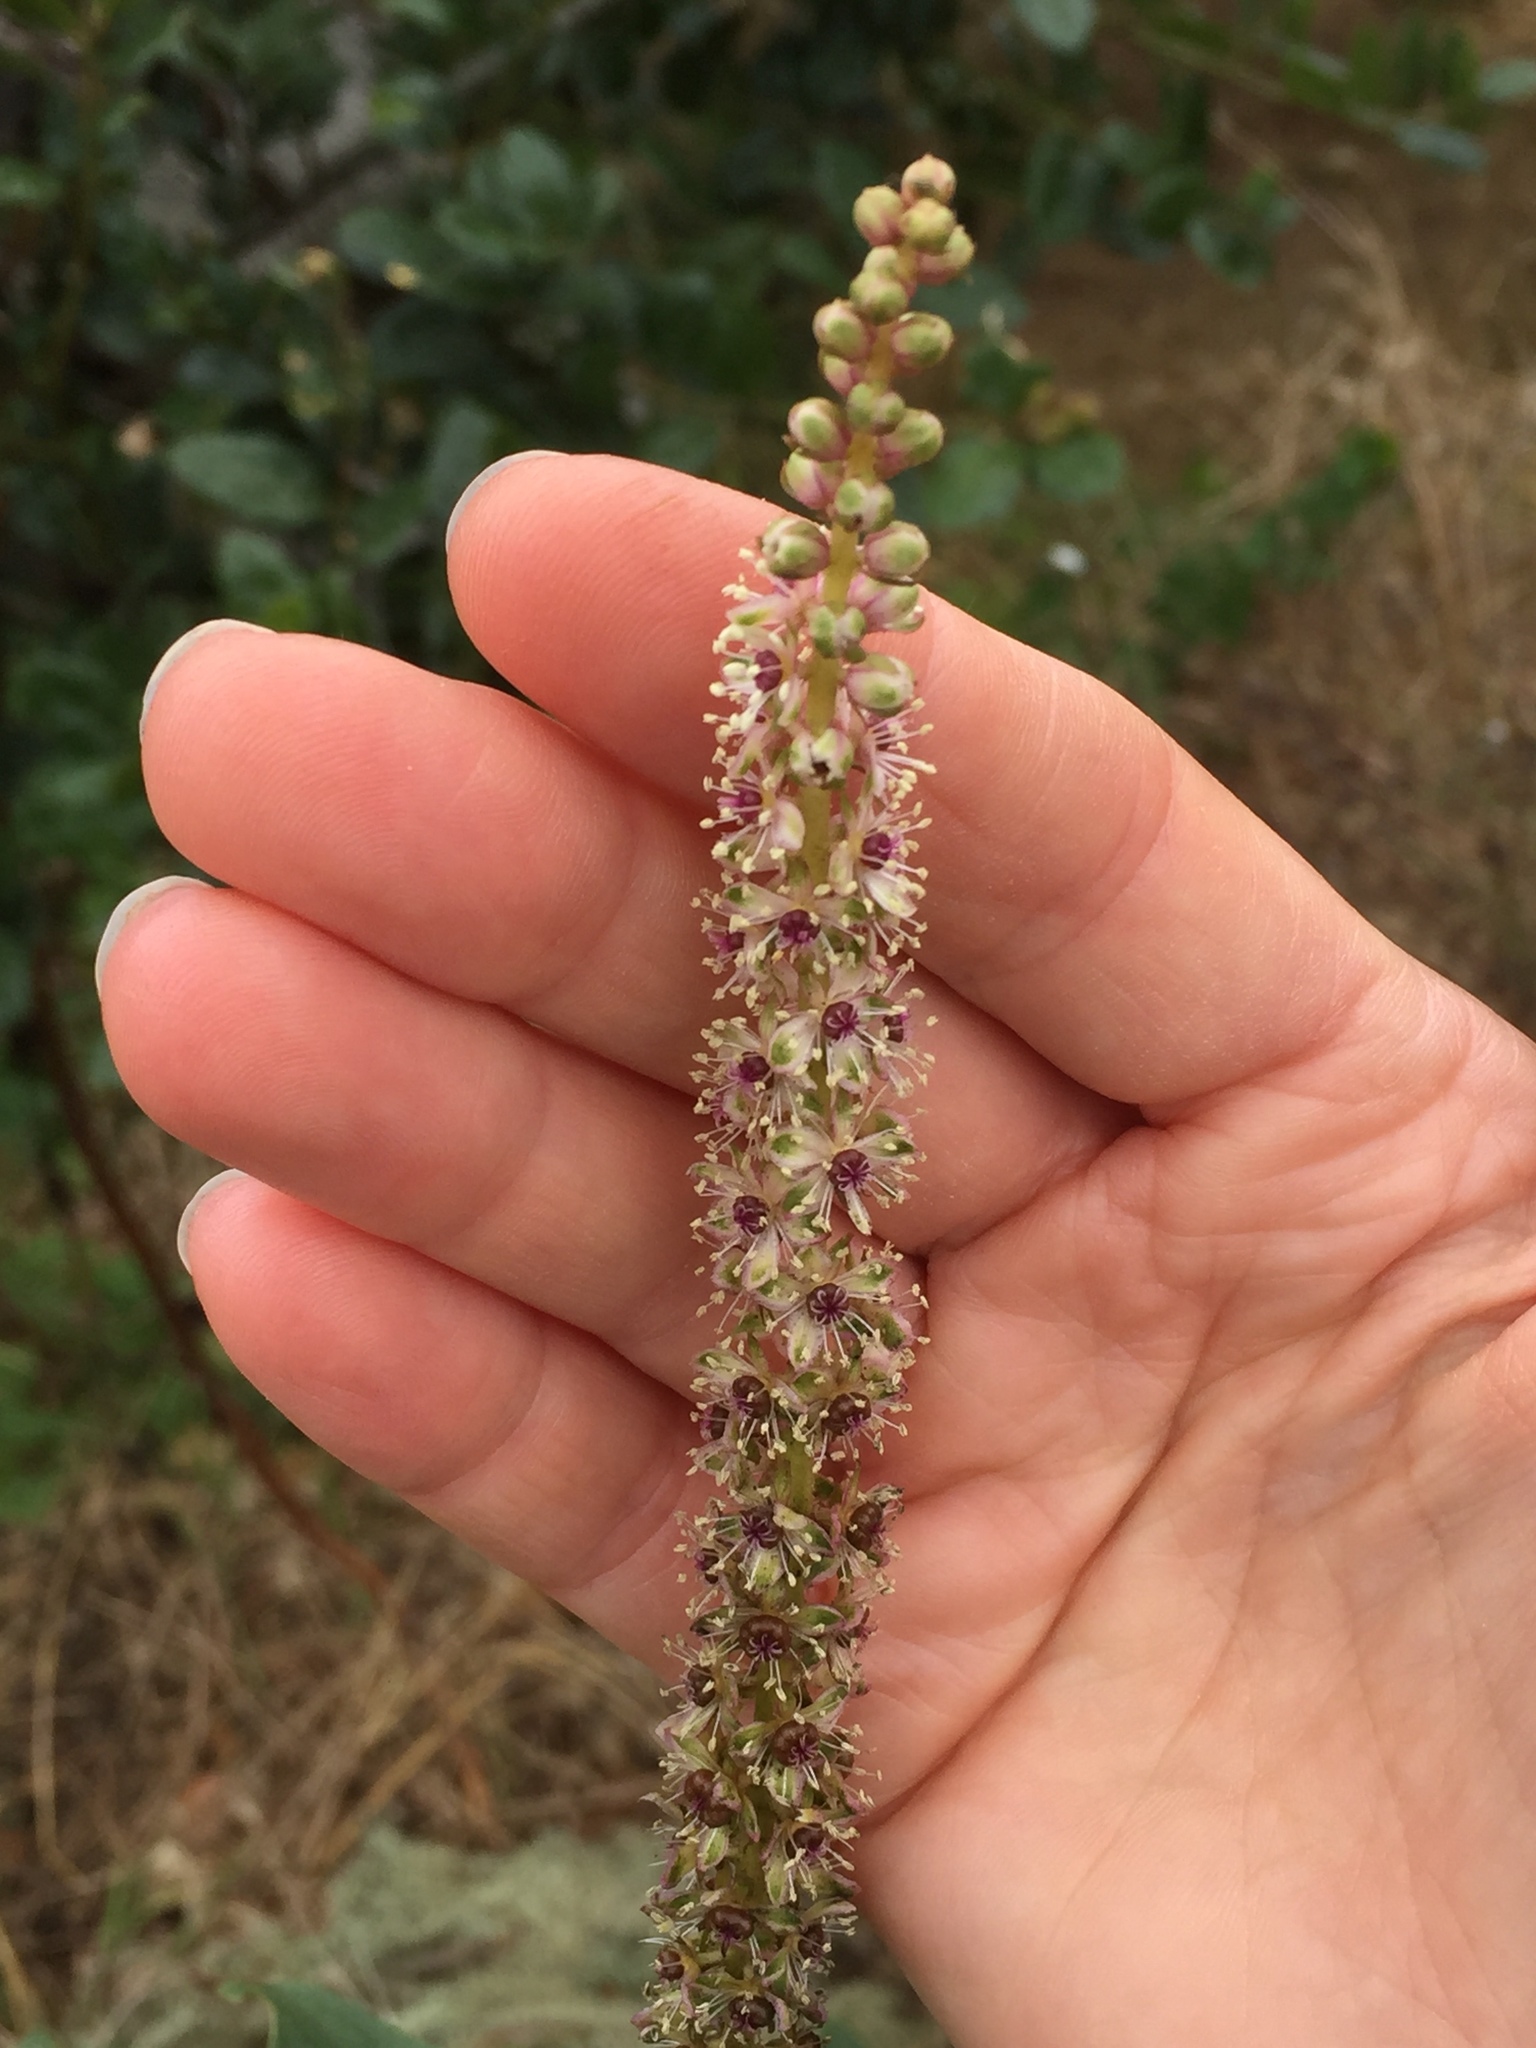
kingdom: Plantae
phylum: Tracheophyta
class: Magnoliopsida
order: Caryophyllales
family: Phytolaccaceae
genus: Phytolacca
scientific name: Phytolacca heterotepala
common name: Mexican pokeweed
